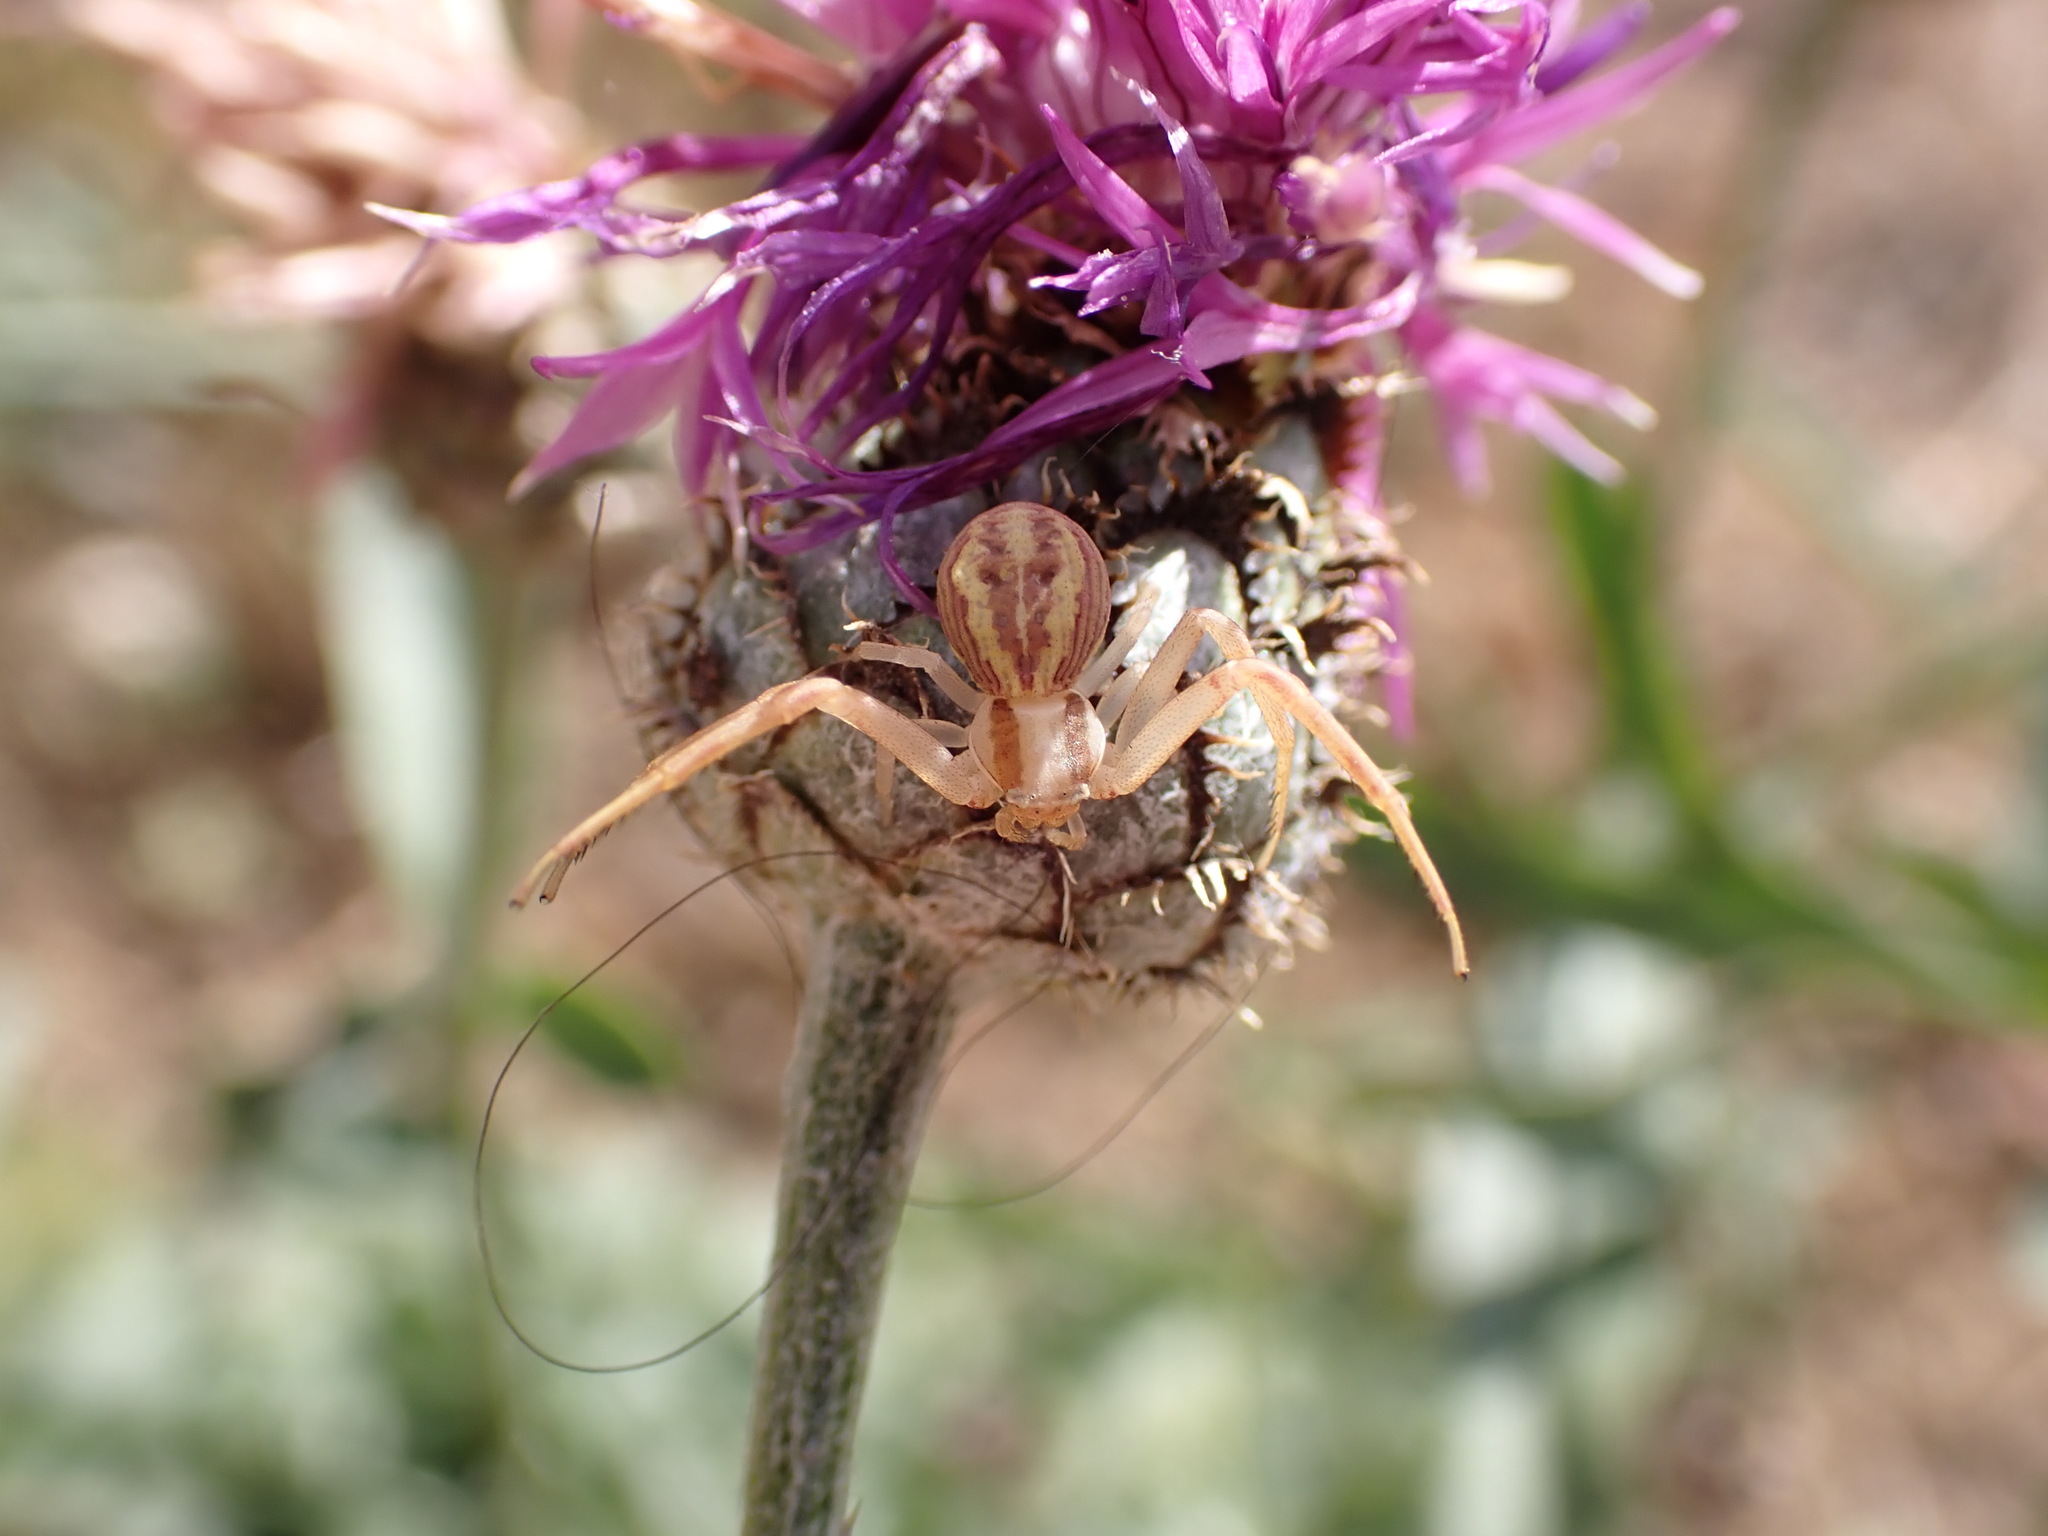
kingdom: Animalia
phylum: Arthropoda
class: Arachnida
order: Araneae
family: Thomisidae
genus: Runcinia
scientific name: Runcinia grammica
